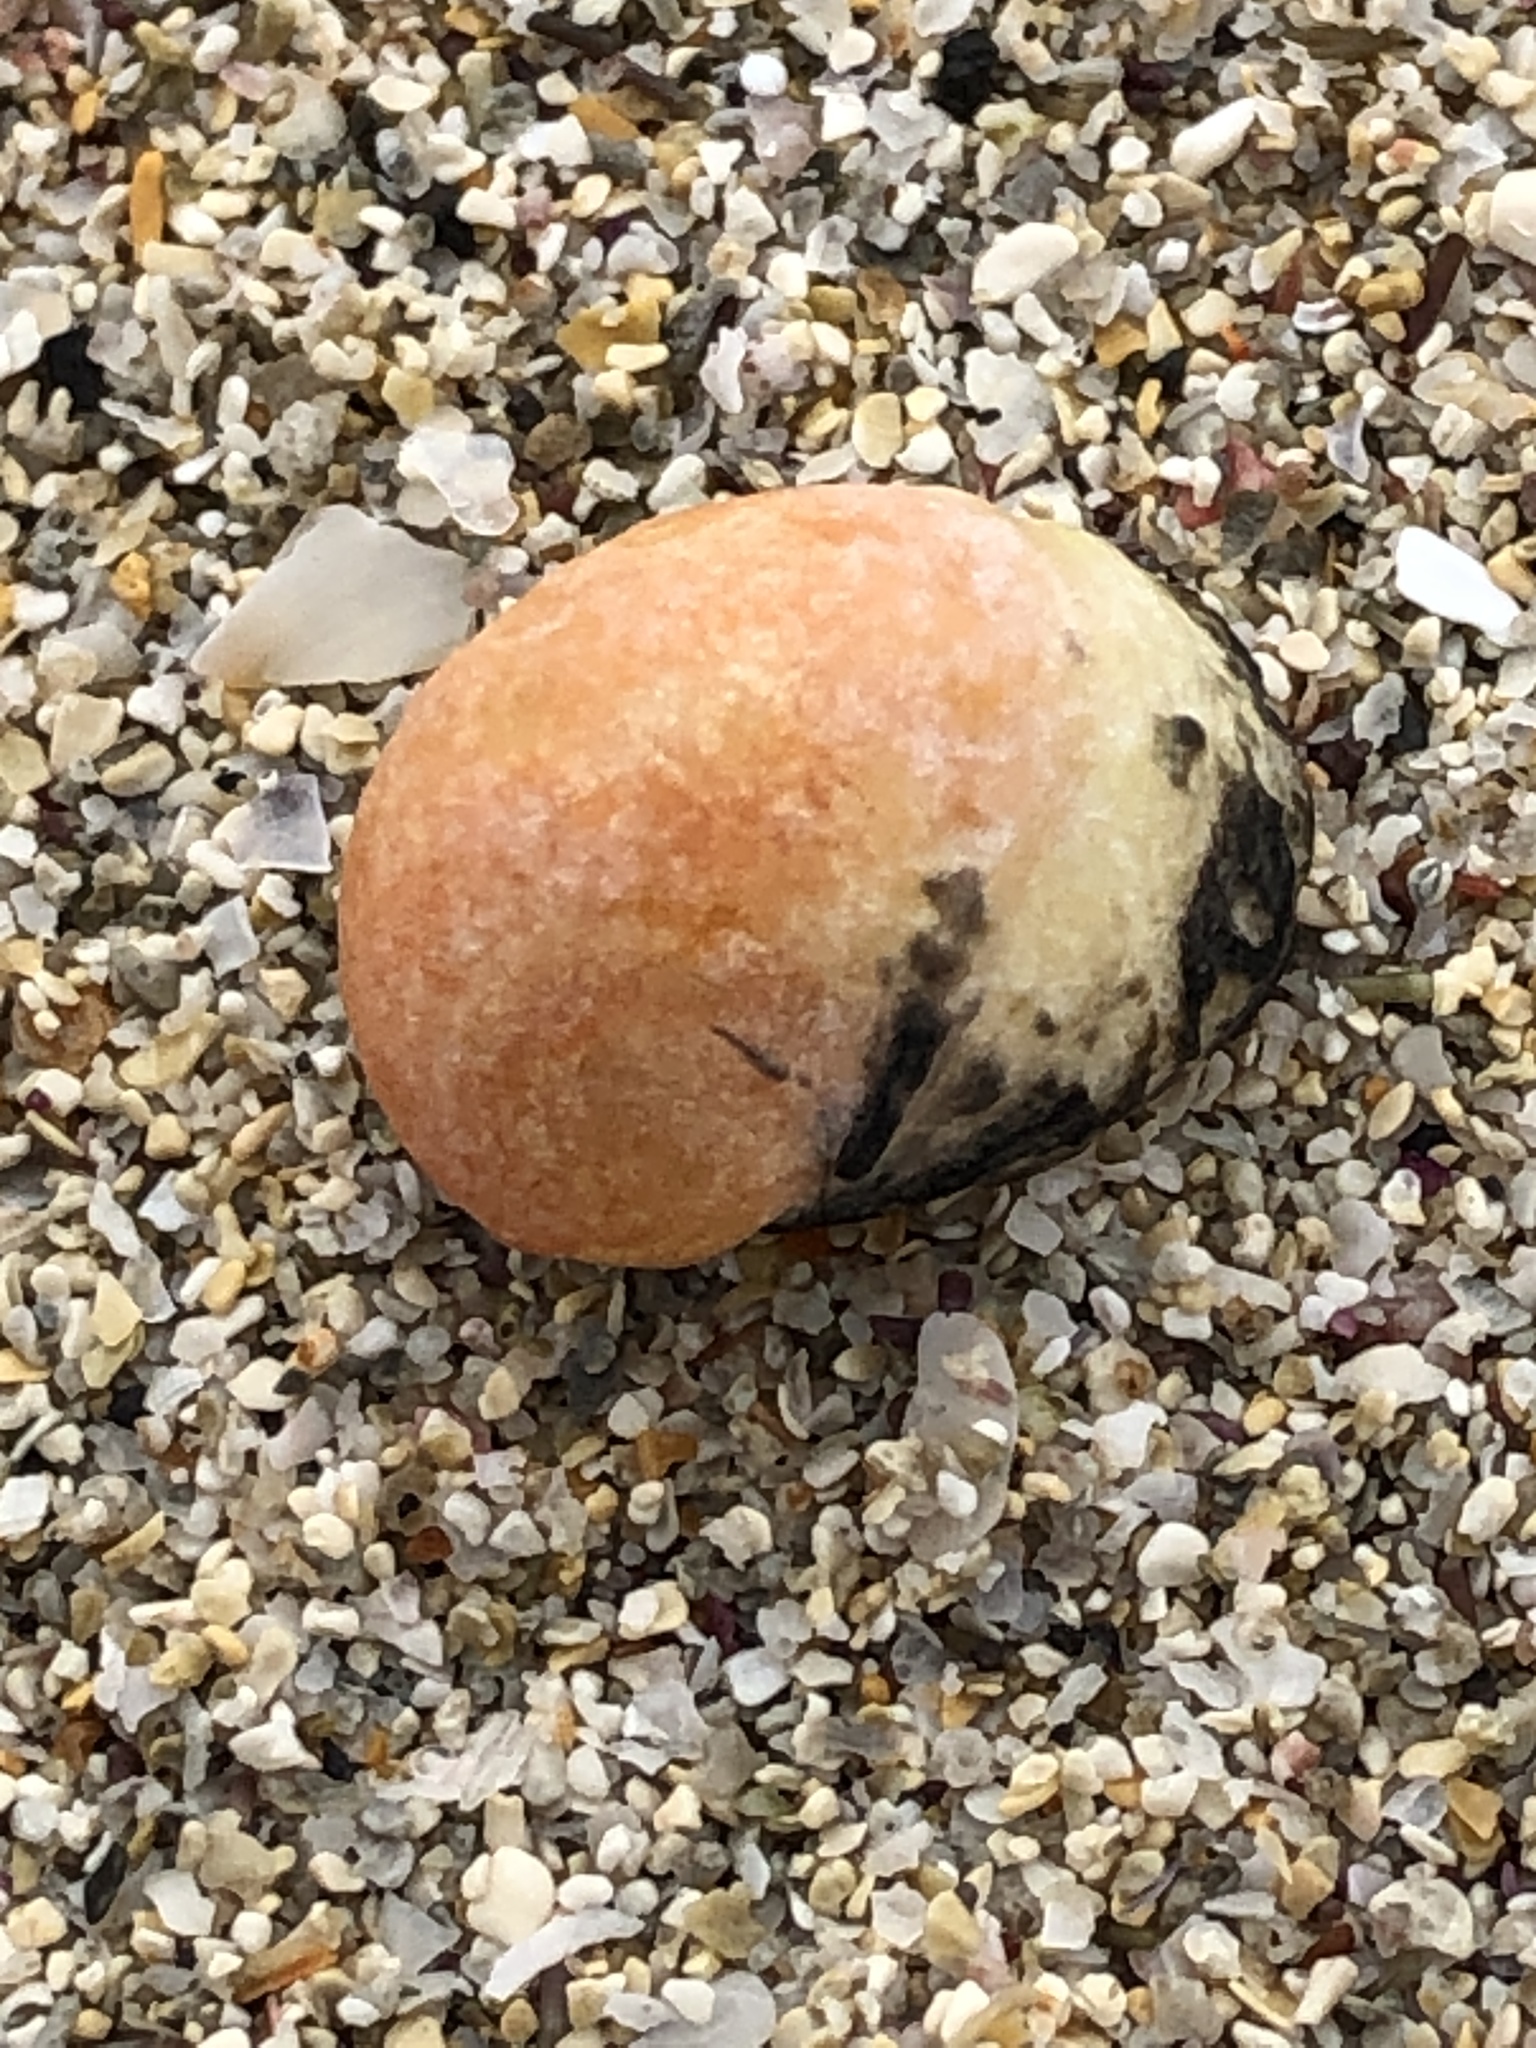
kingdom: Animalia
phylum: Mollusca
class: Gastropoda
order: Cycloneritida
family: Neritidae
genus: Nerita
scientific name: Nerita japonica
